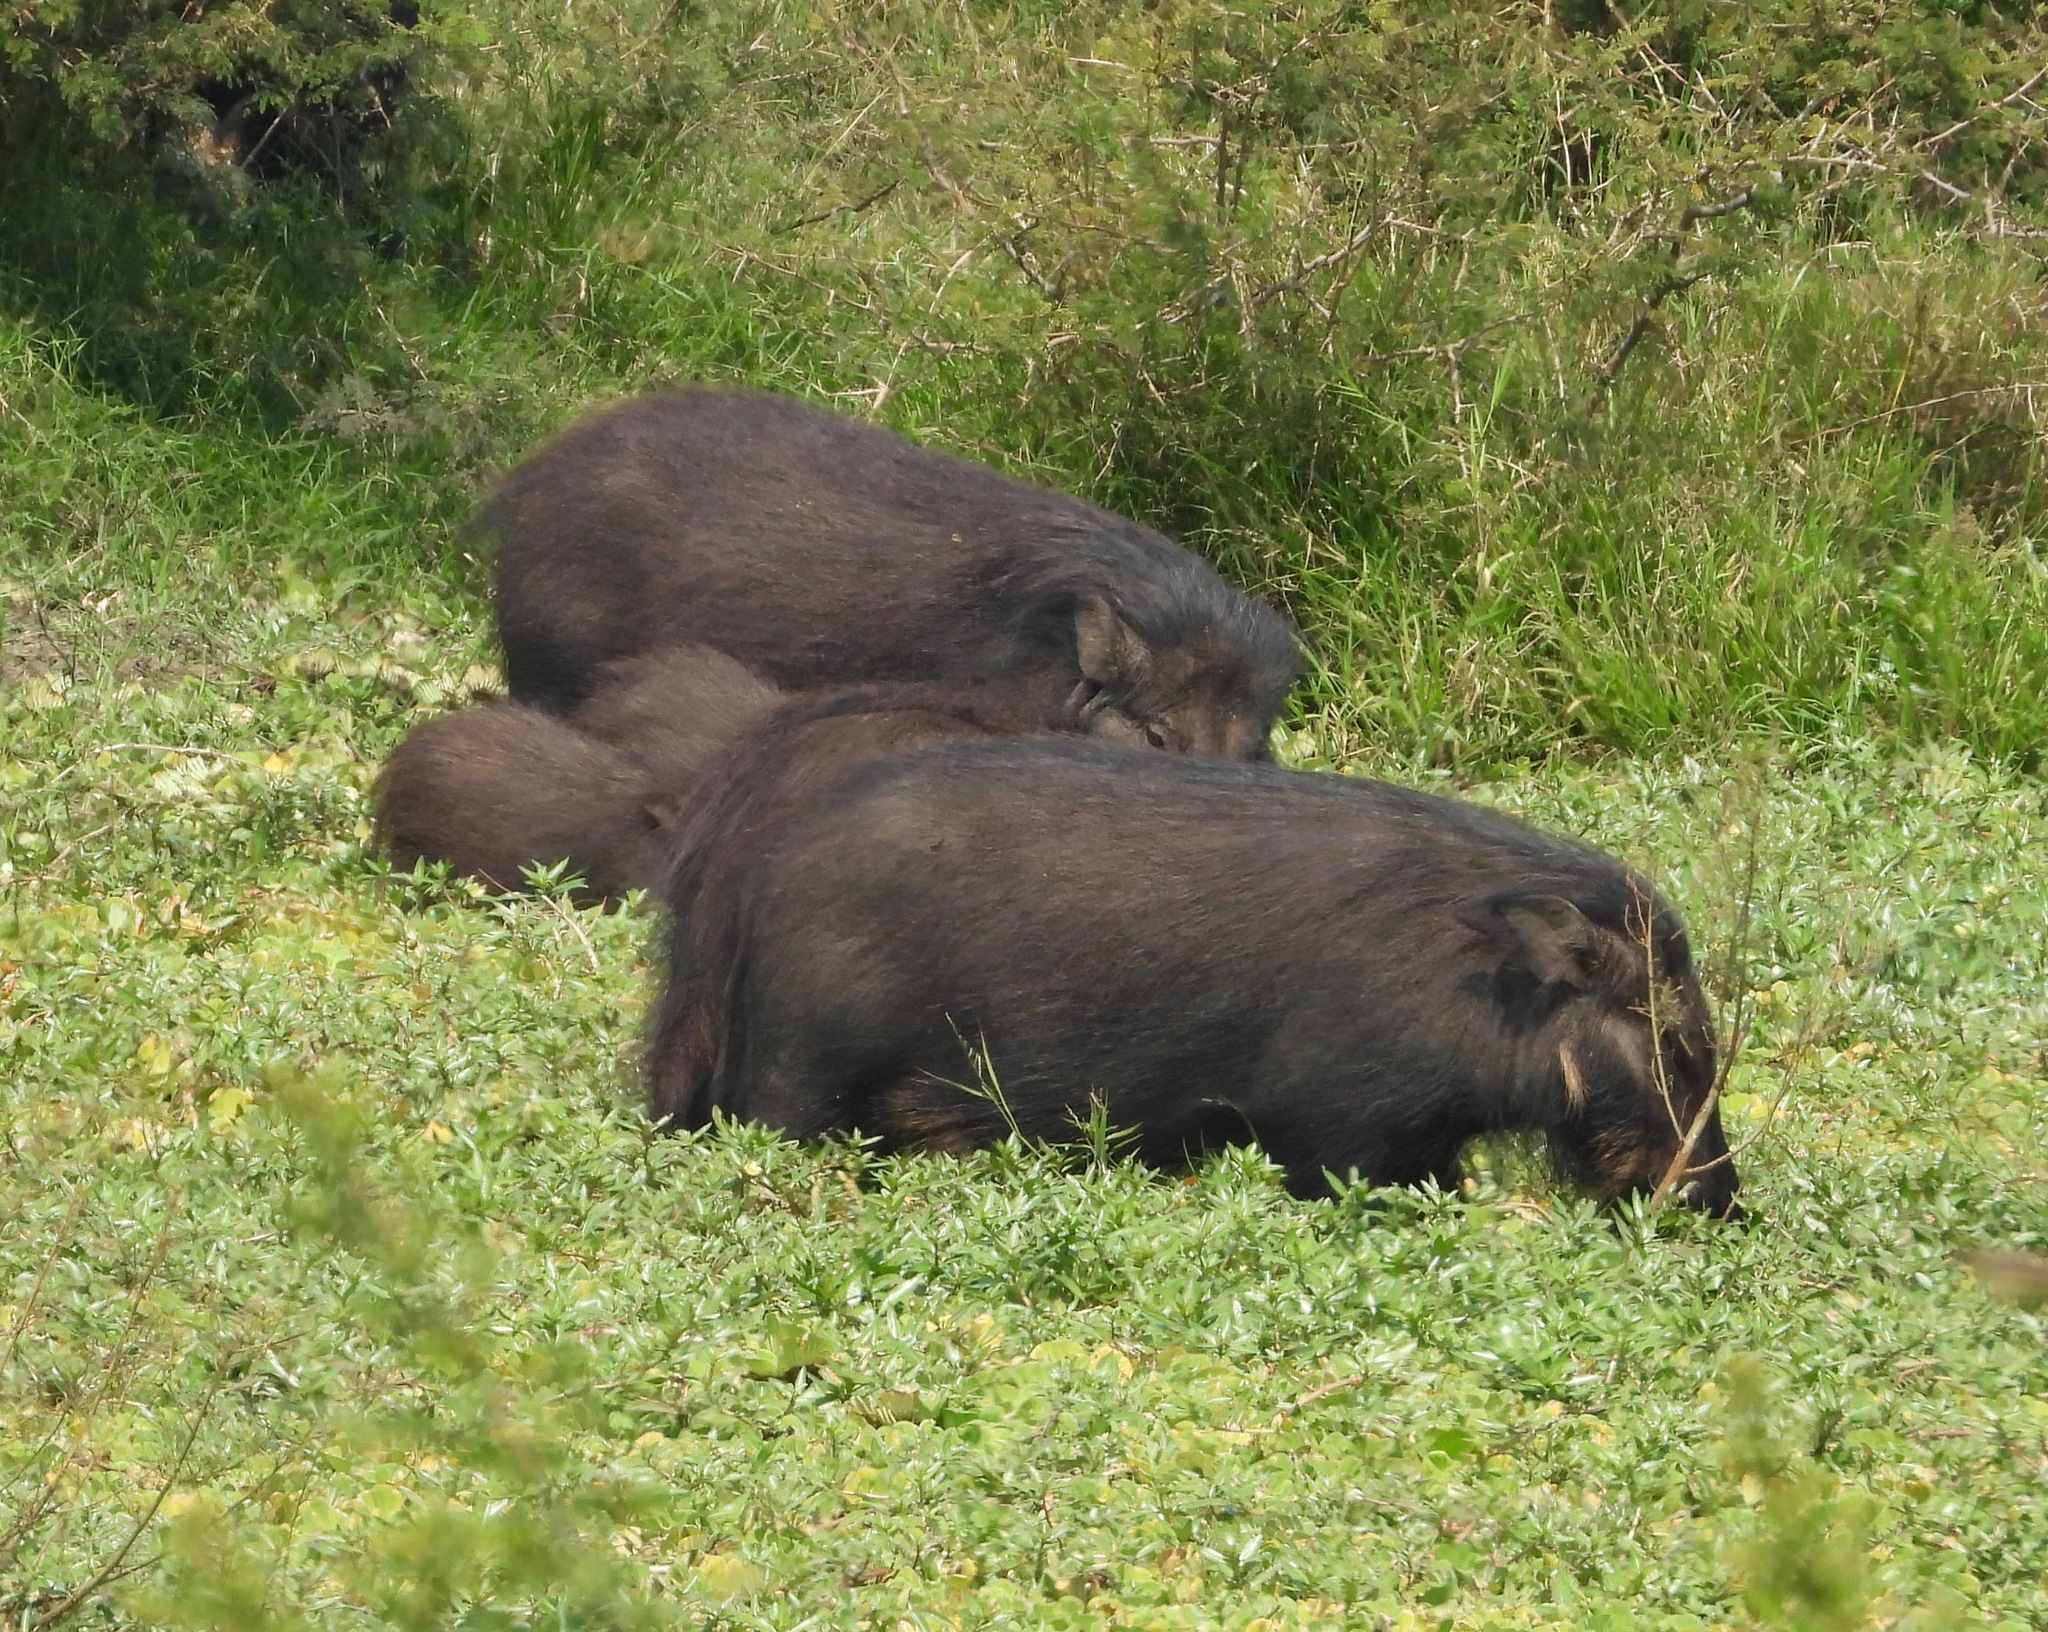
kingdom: Animalia
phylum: Chordata
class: Mammalia
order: Artiodactyla
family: Suidae
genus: Hylochoerus
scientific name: Hylochoerus meinertzhageni
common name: Giant forest hog
